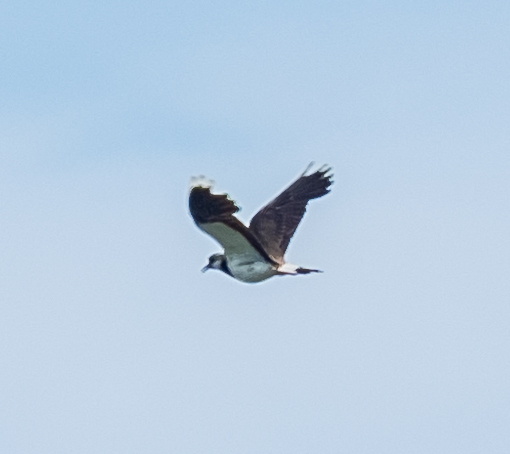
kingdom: Animalia
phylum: Chordata
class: Aves
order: Charadriiformes
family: Charadriidae
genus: Vanellus
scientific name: Vanellus vanellus
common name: Northern lapwing
